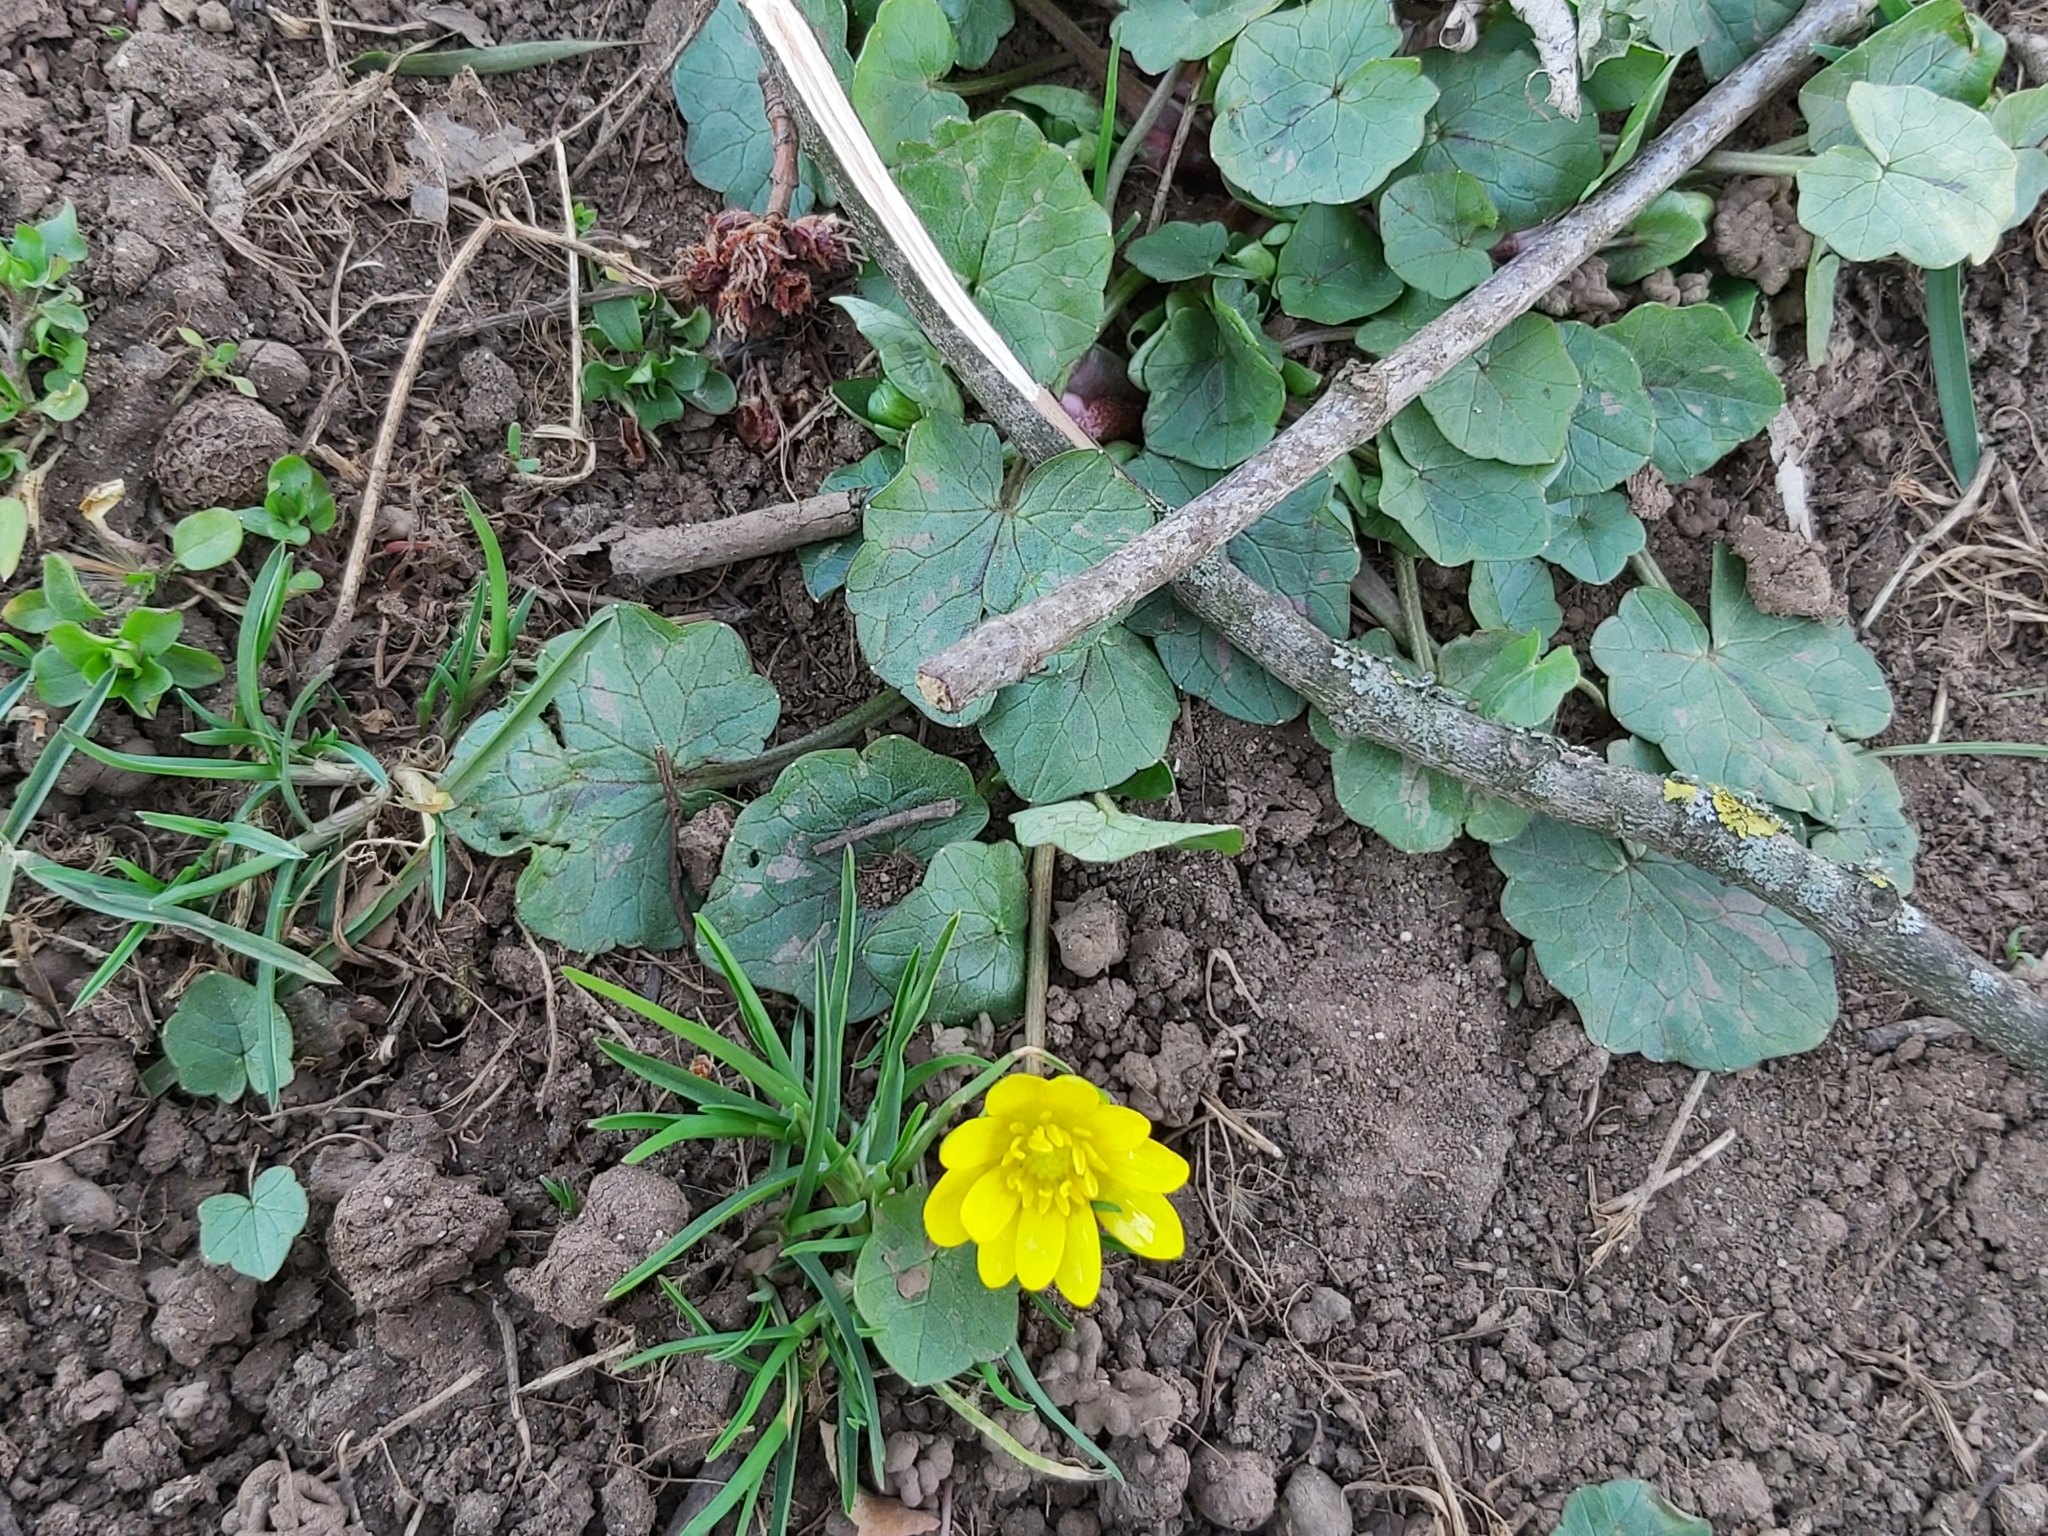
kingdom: Plantae
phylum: Tracheophyta
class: Magnoliopsida
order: Ranunculales
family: Ranunculaceae
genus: Ficaria
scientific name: Ficaria verna
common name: Lesser celandine
